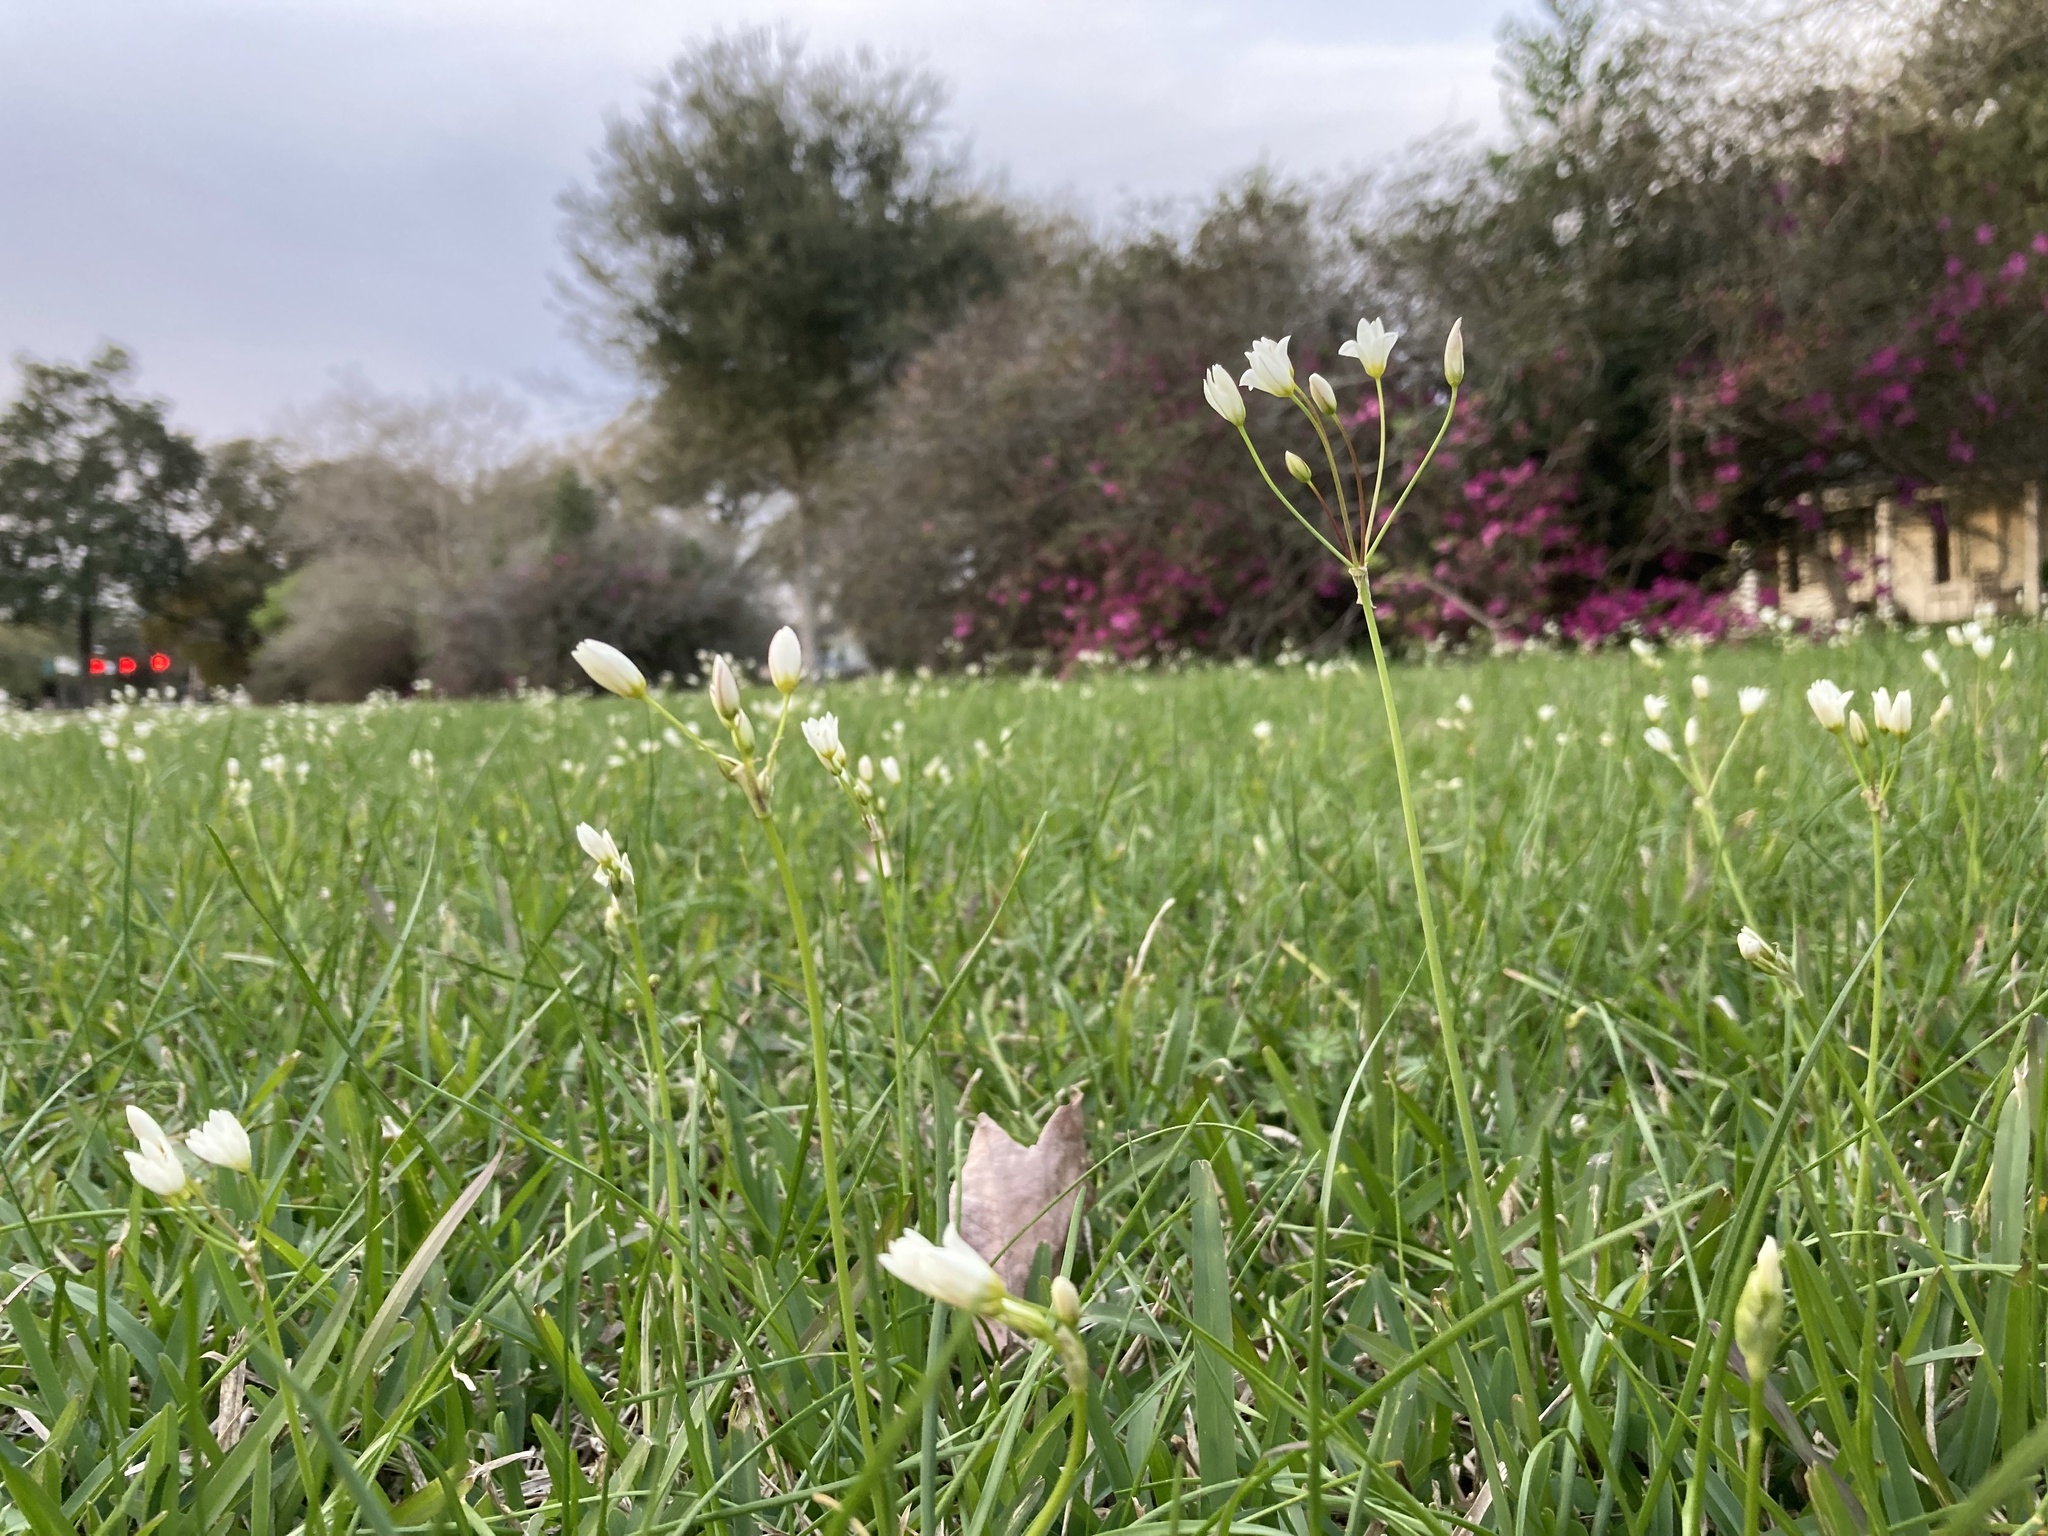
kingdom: Plantae
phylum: Tracheophyta
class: Liliopsida
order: Asparagales
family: Amaryllidaceae
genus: Nothoscordum
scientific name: Nothoscordum bivalve
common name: Crow-poison
